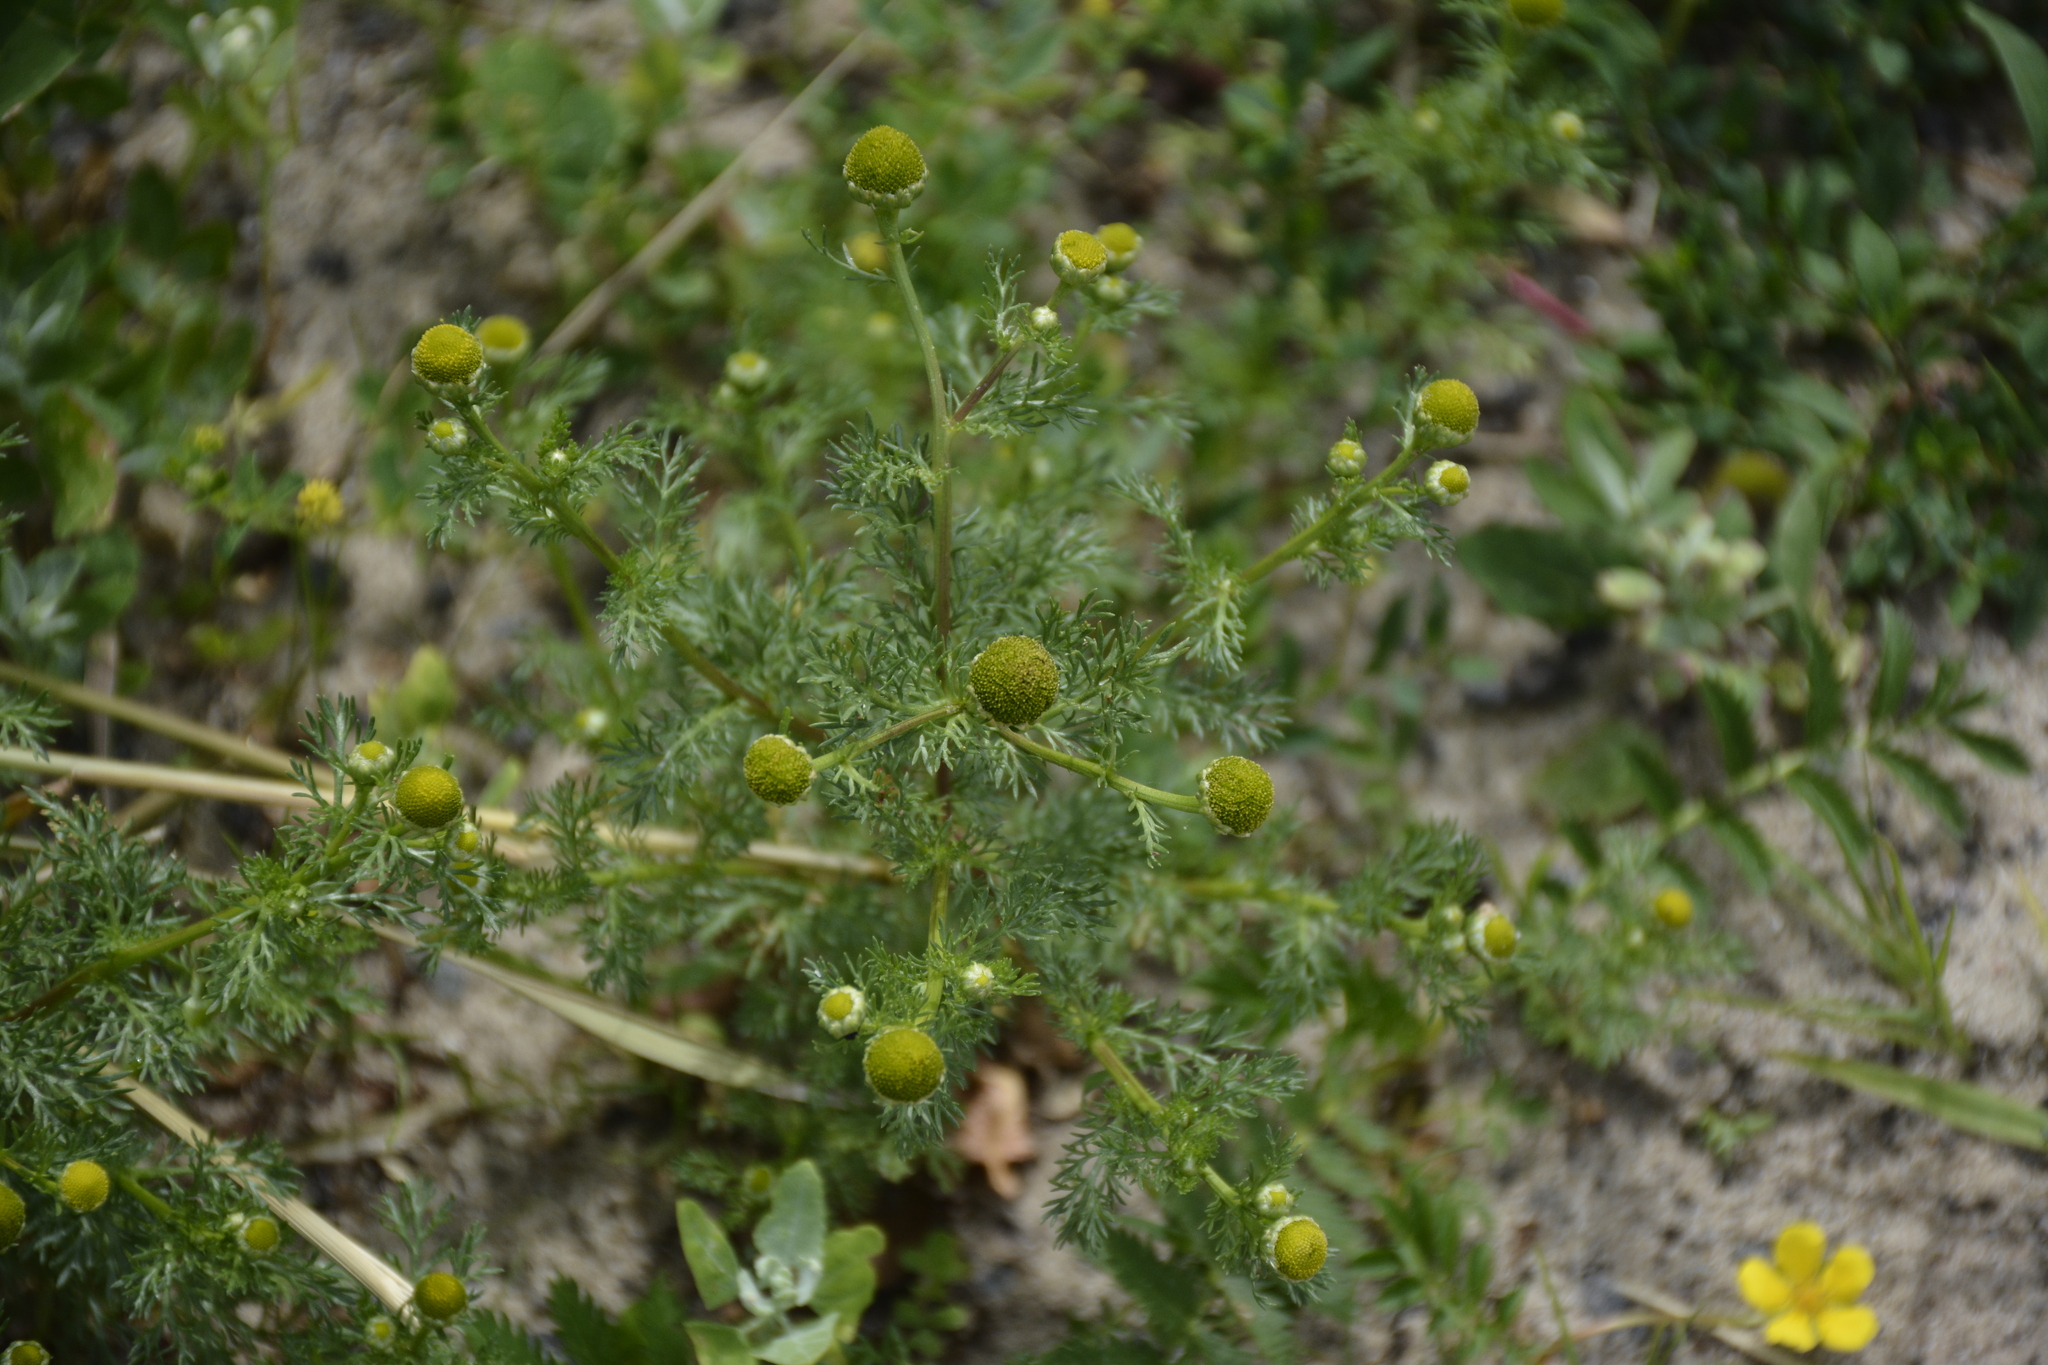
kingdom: Plantae
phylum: Tracheophyta
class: Magnoliopsida
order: Asterales
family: Asteraceae
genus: Matricaria
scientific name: Matricaria discoidea
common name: Disc mayweed
